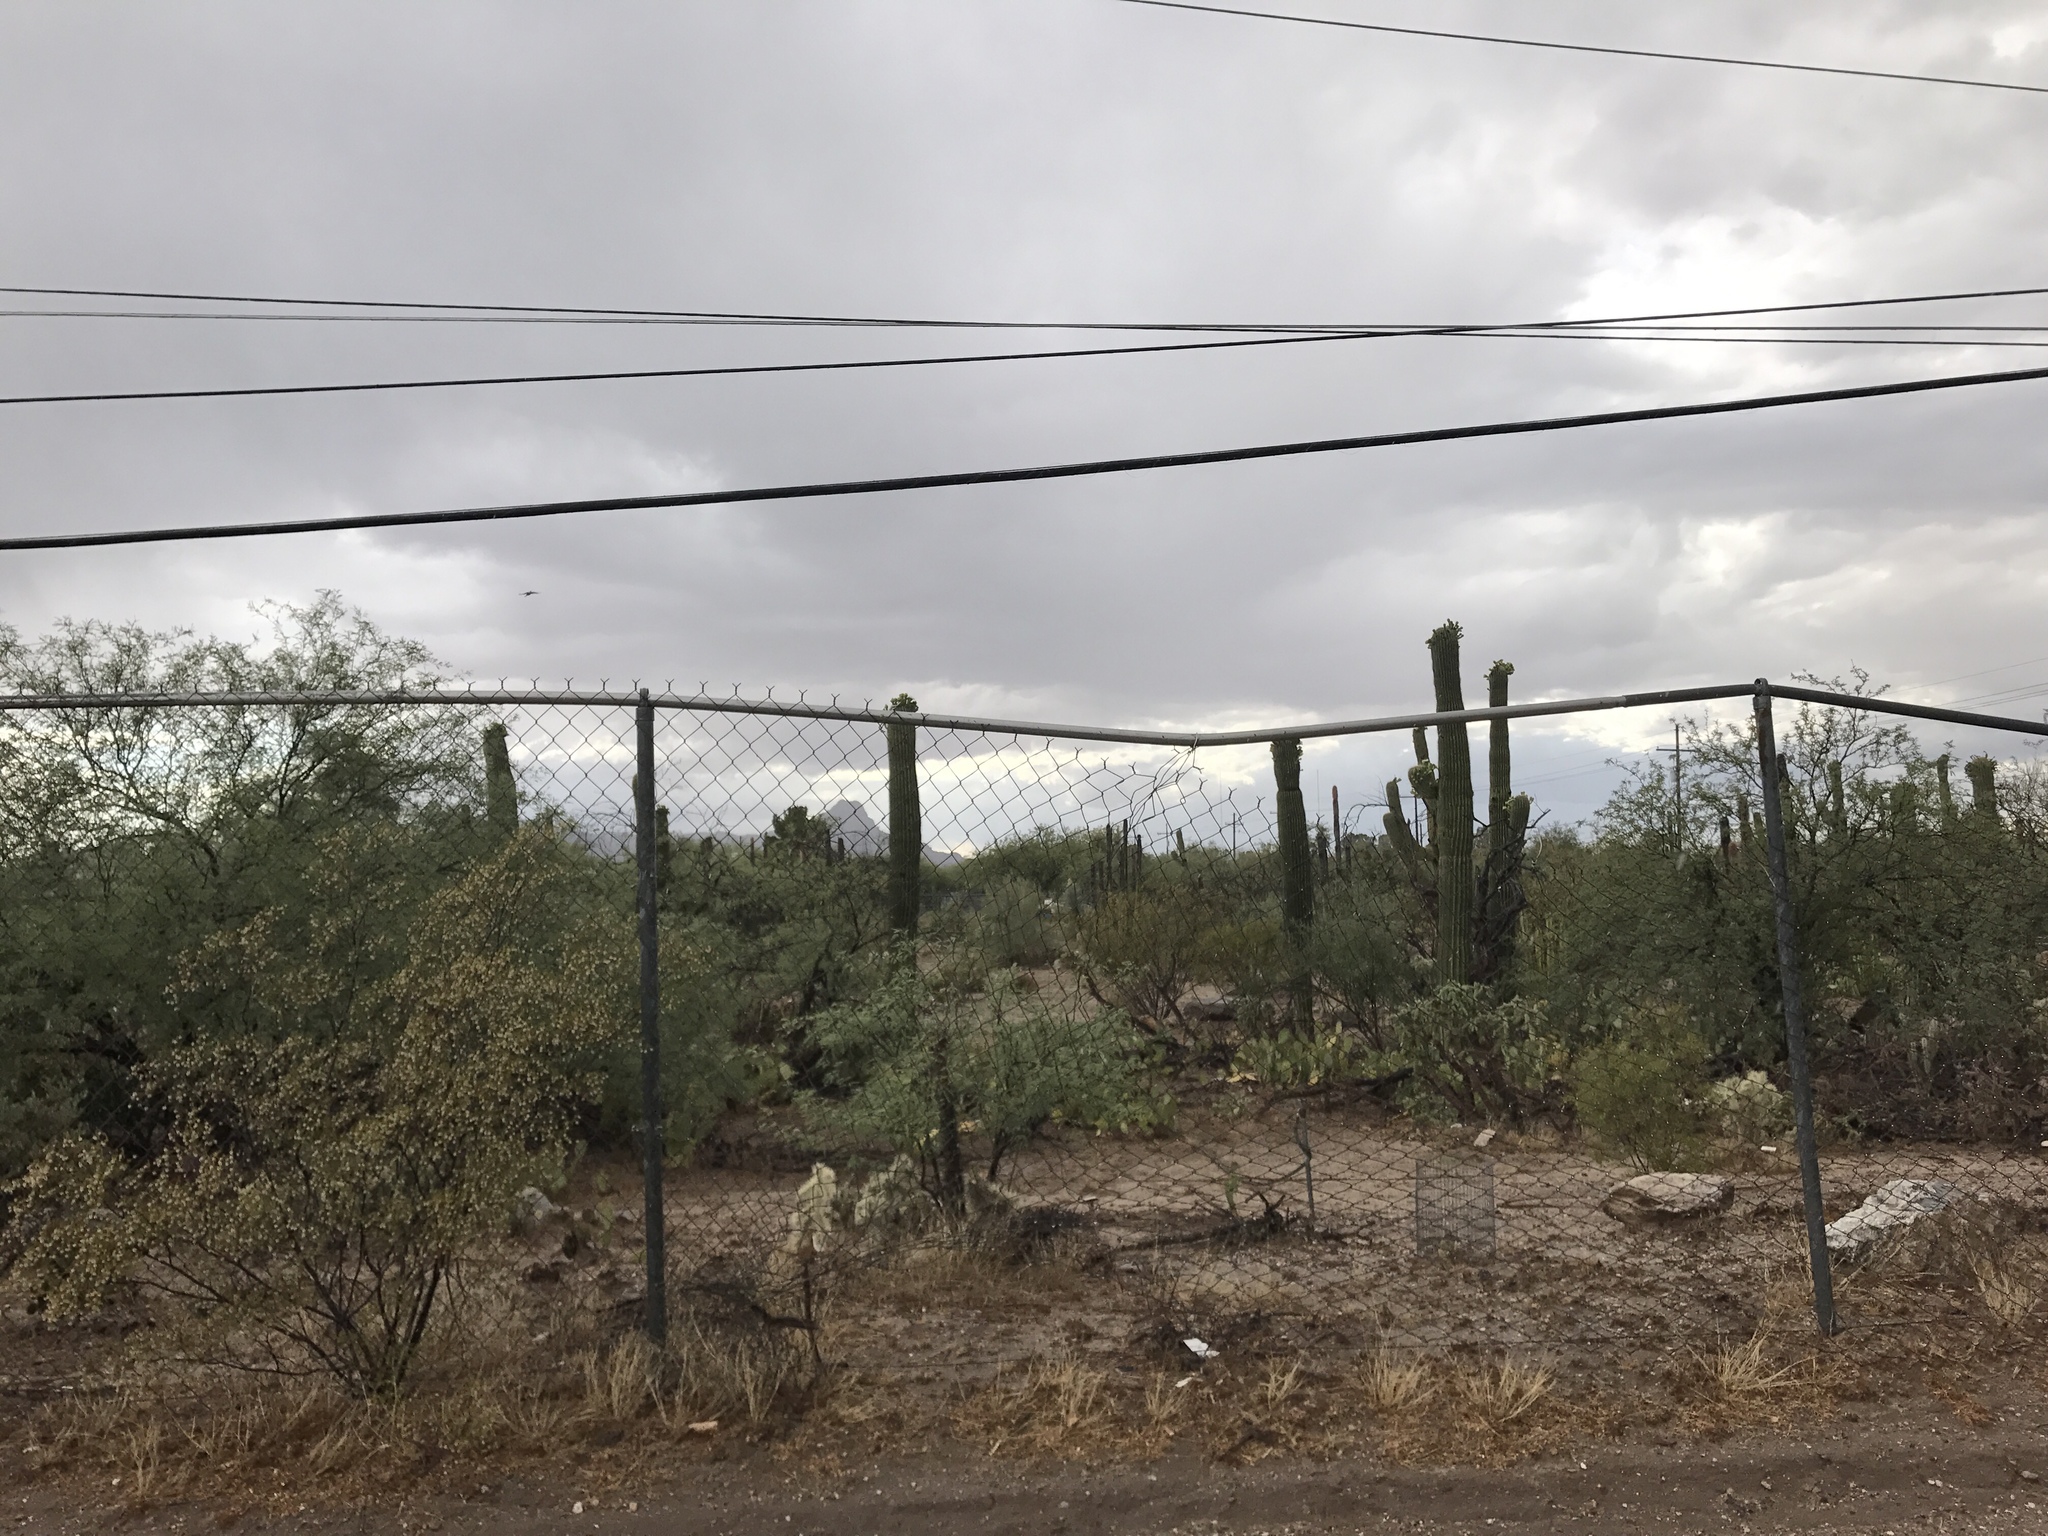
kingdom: Plantae
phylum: Tracheophyta
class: Magnoliopsida
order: Caryophyllales
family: Cactaceae
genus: Carnegiea
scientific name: Carnegiea gigantea
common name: Saguaro
